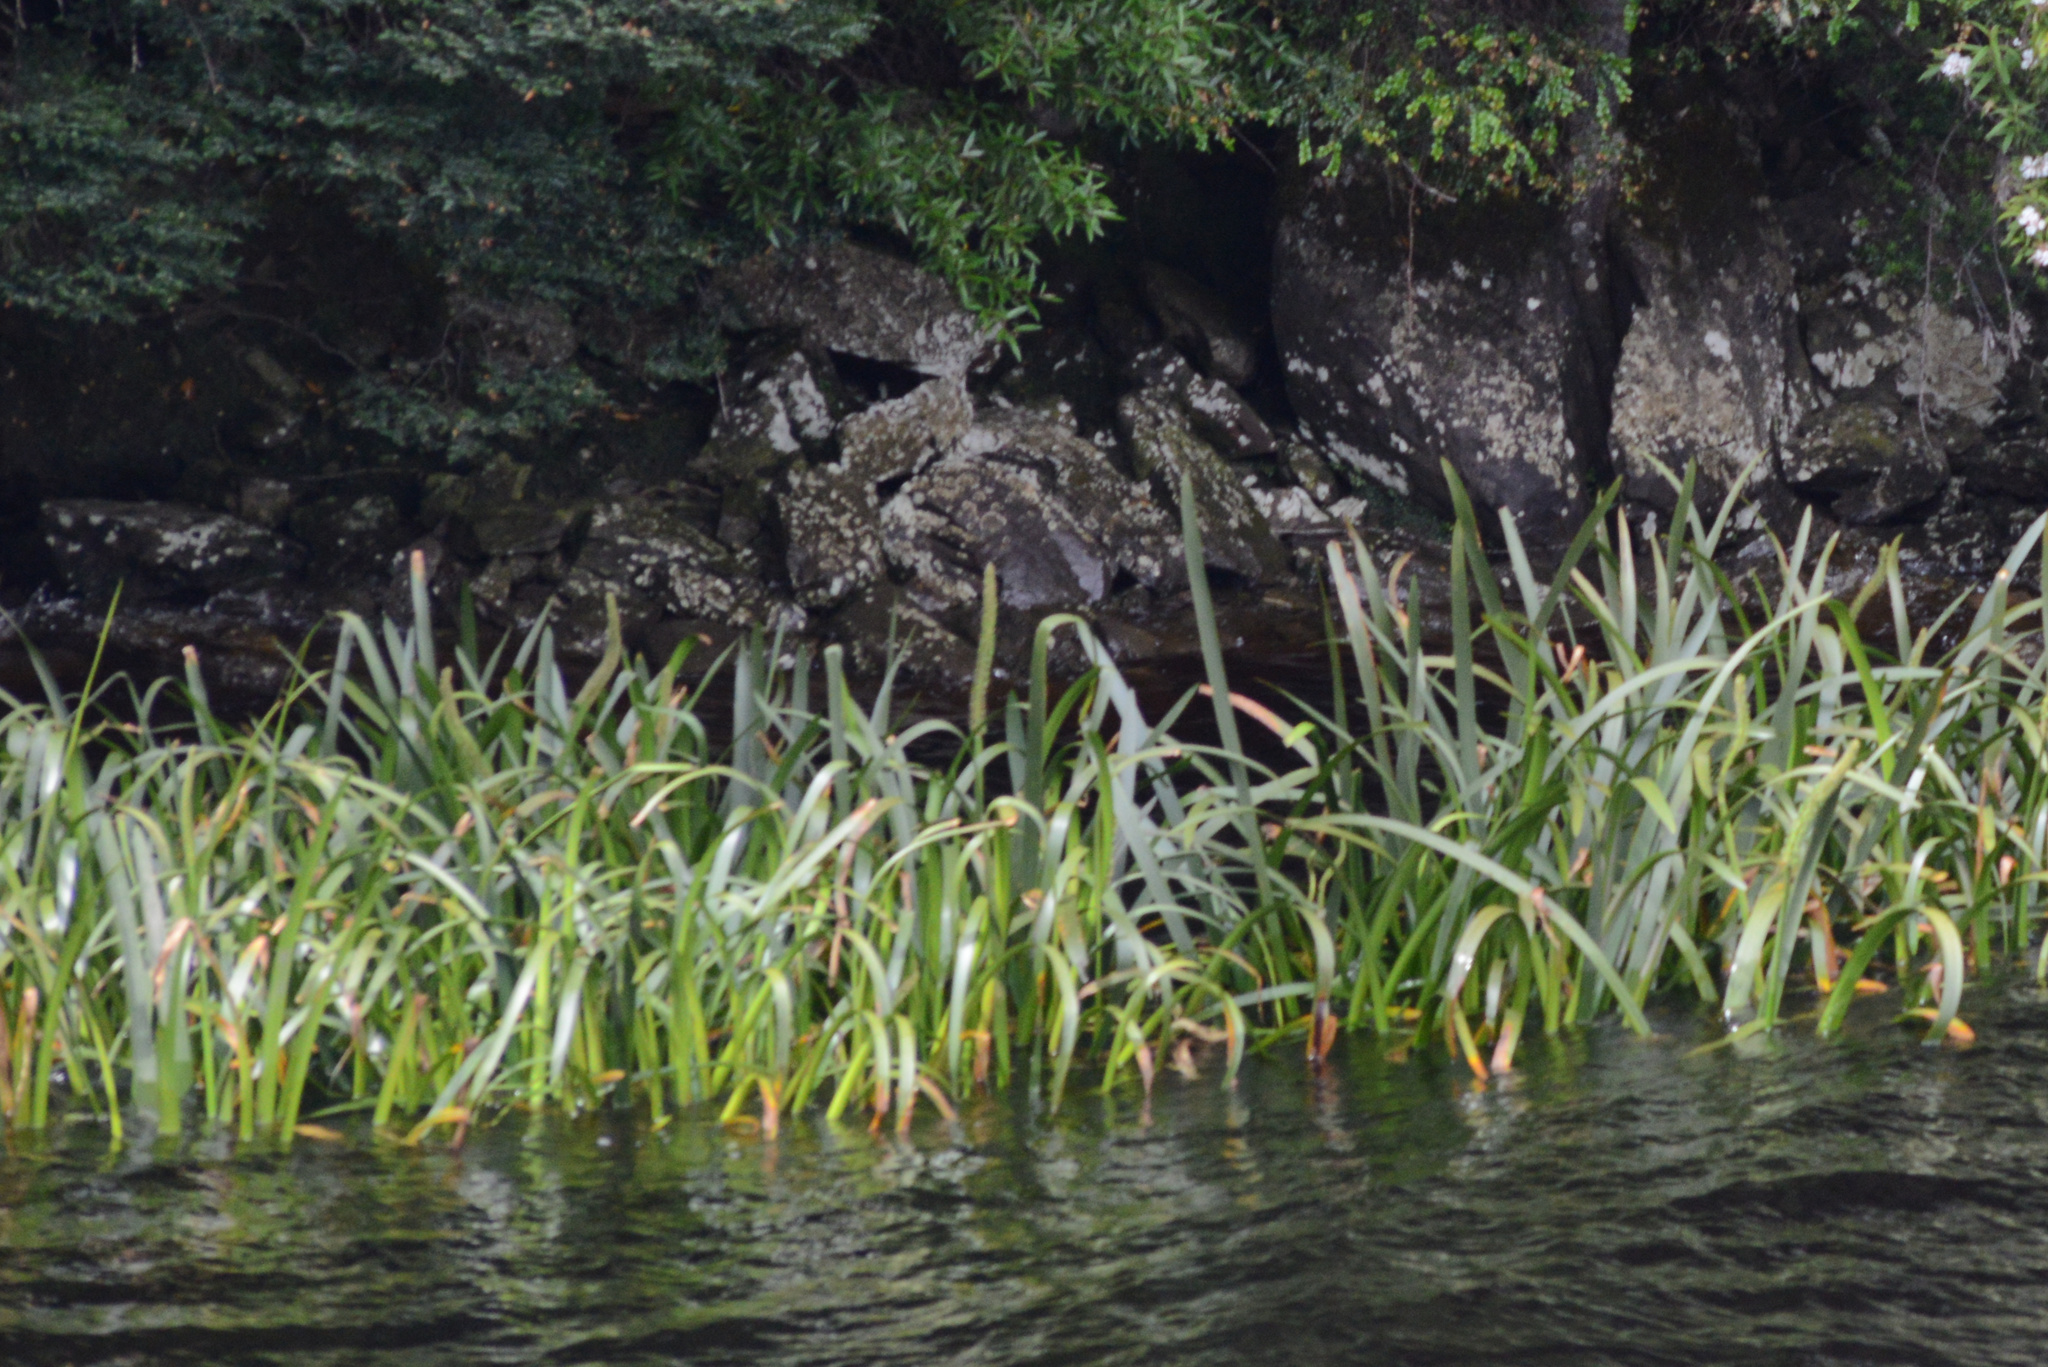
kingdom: Plantae
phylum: Tracheophyta
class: Liliopsida
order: Alismatales
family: Juncaginaceae
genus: Cycnogeton
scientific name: Cycnogeton procerum
